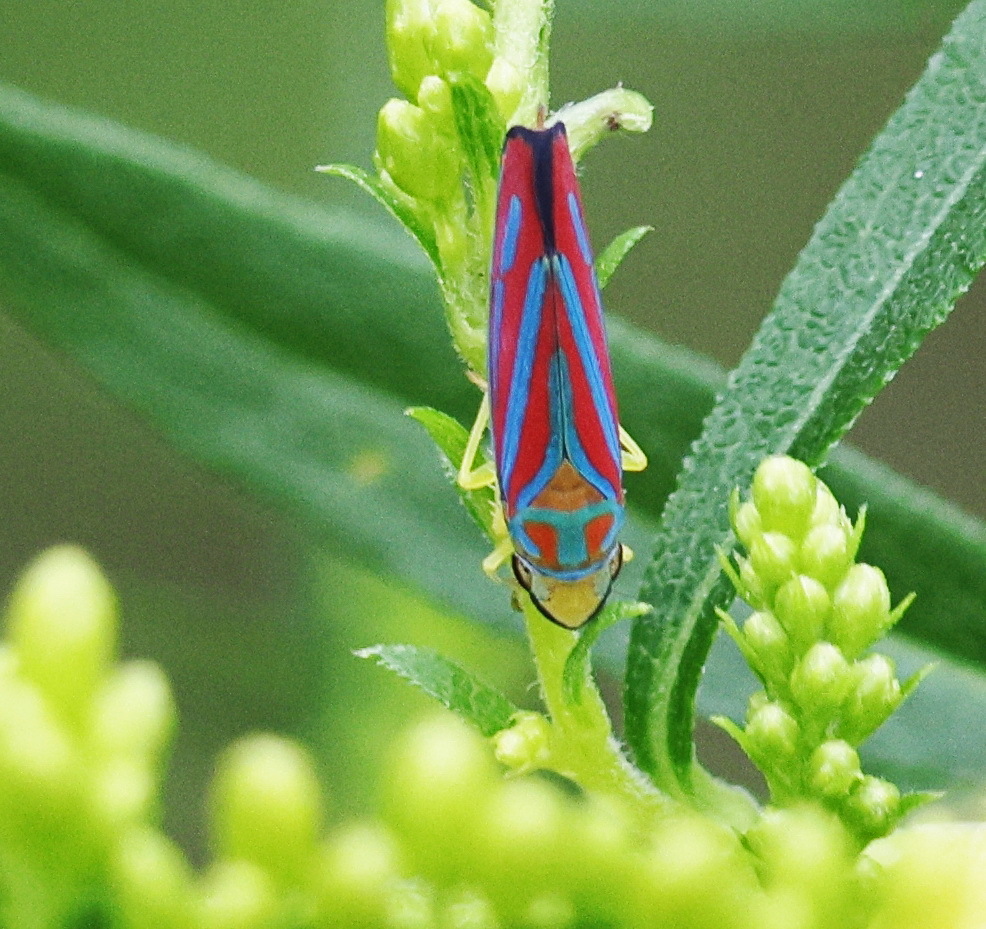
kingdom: Animalia
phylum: Arthropoda
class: Insecta
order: Hemiptera
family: Cicadellidae
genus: Graphocephala
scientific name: Graphocephala coccinea
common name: Candy-striped leafhopper
